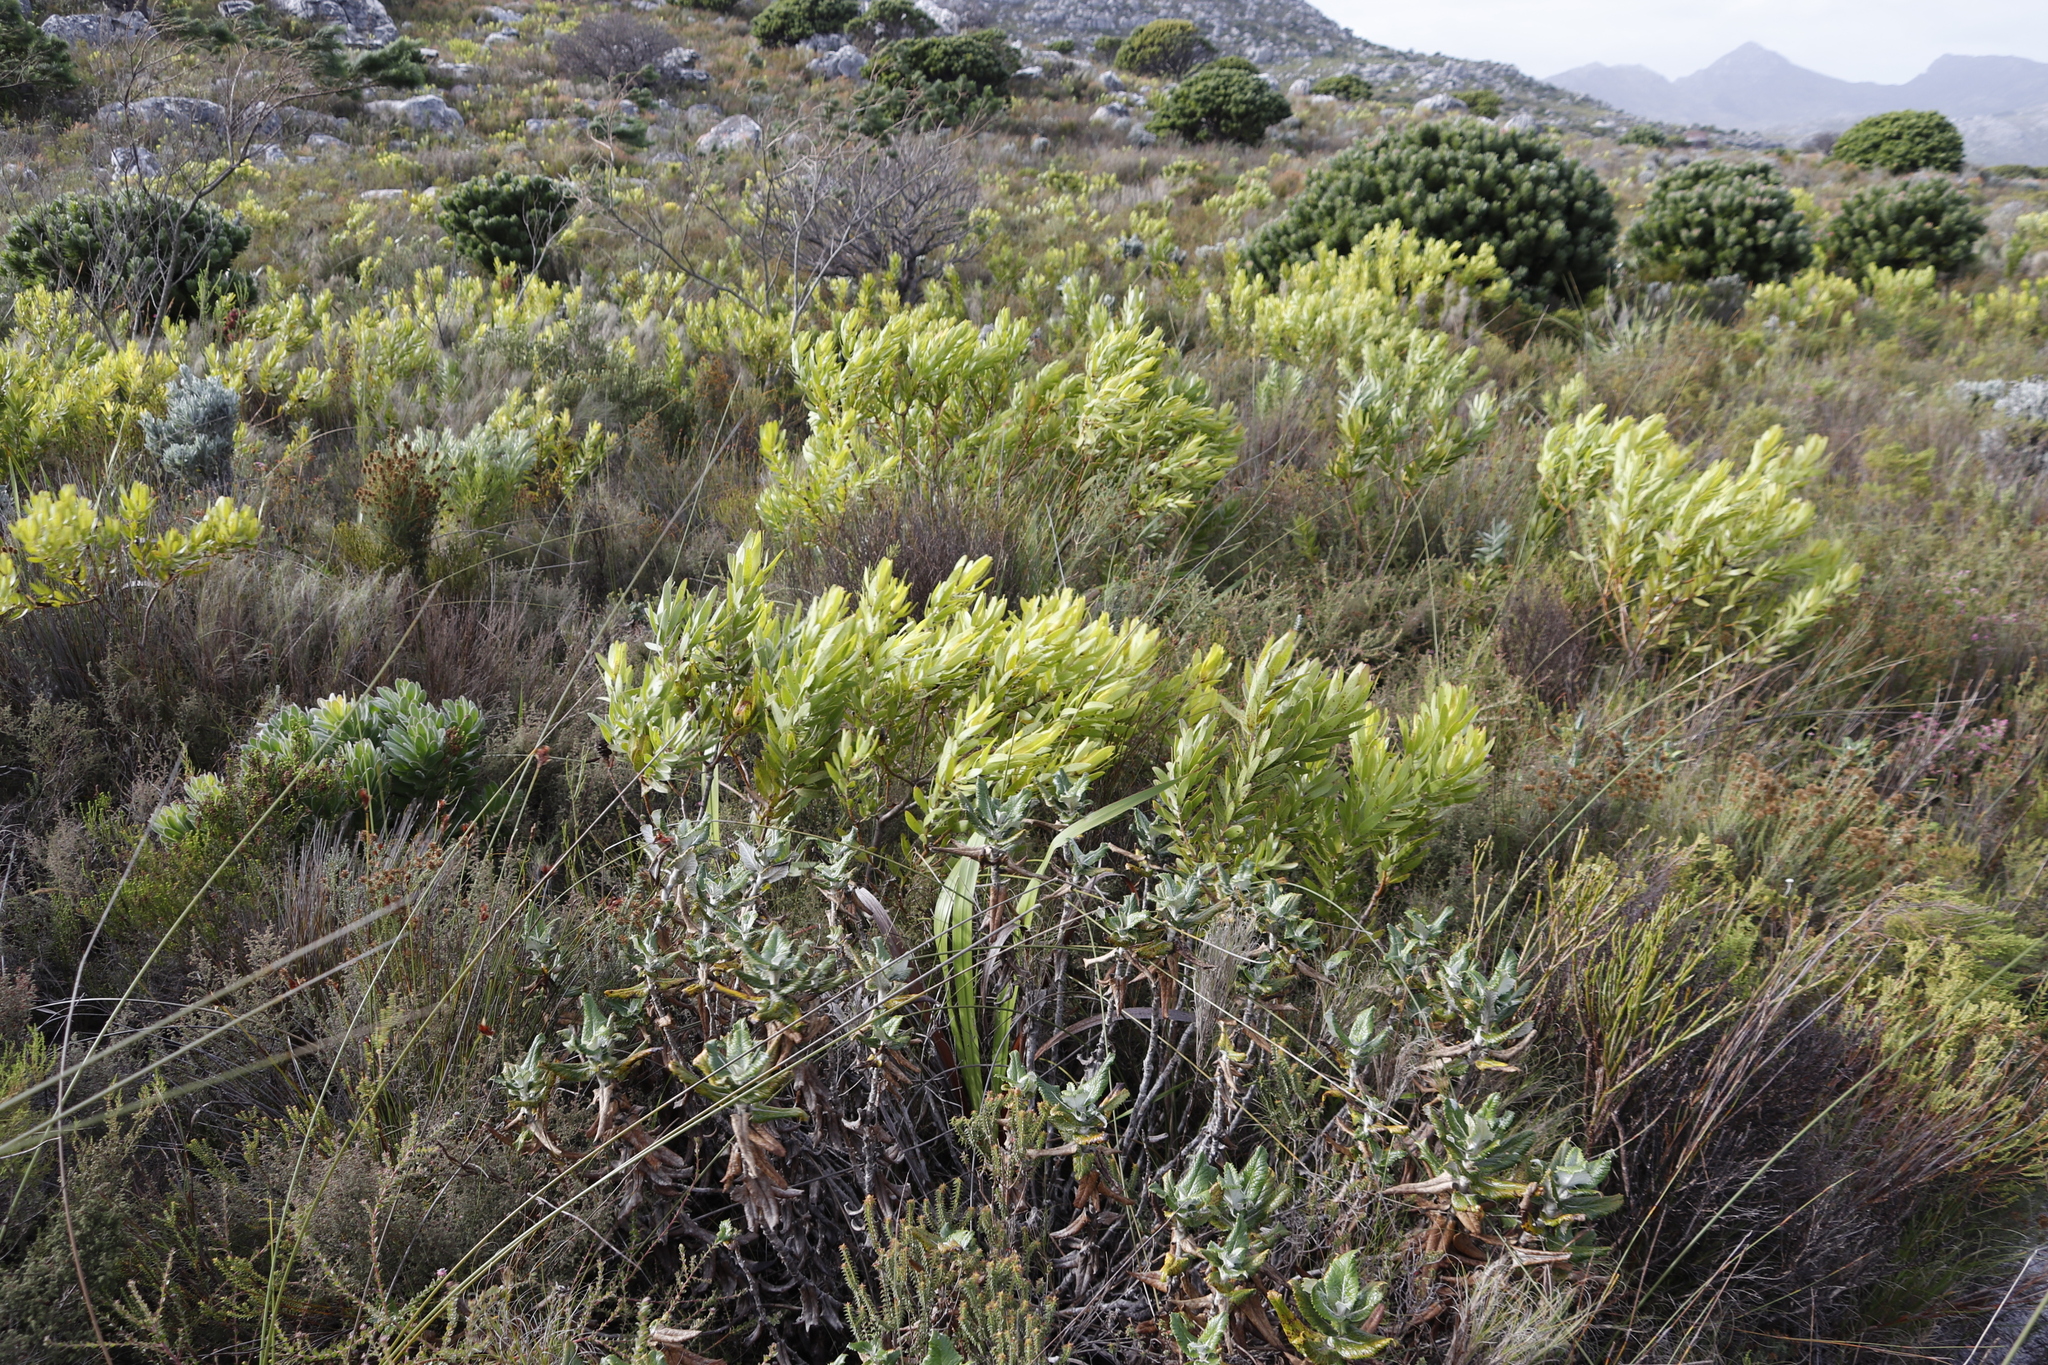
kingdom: Plantae
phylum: Tracheophyta
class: Magnoliopsida
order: Proteales
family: Proteaceae
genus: Leucadendron
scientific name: Leucadendron laureolum
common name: Golden sunshinebush
